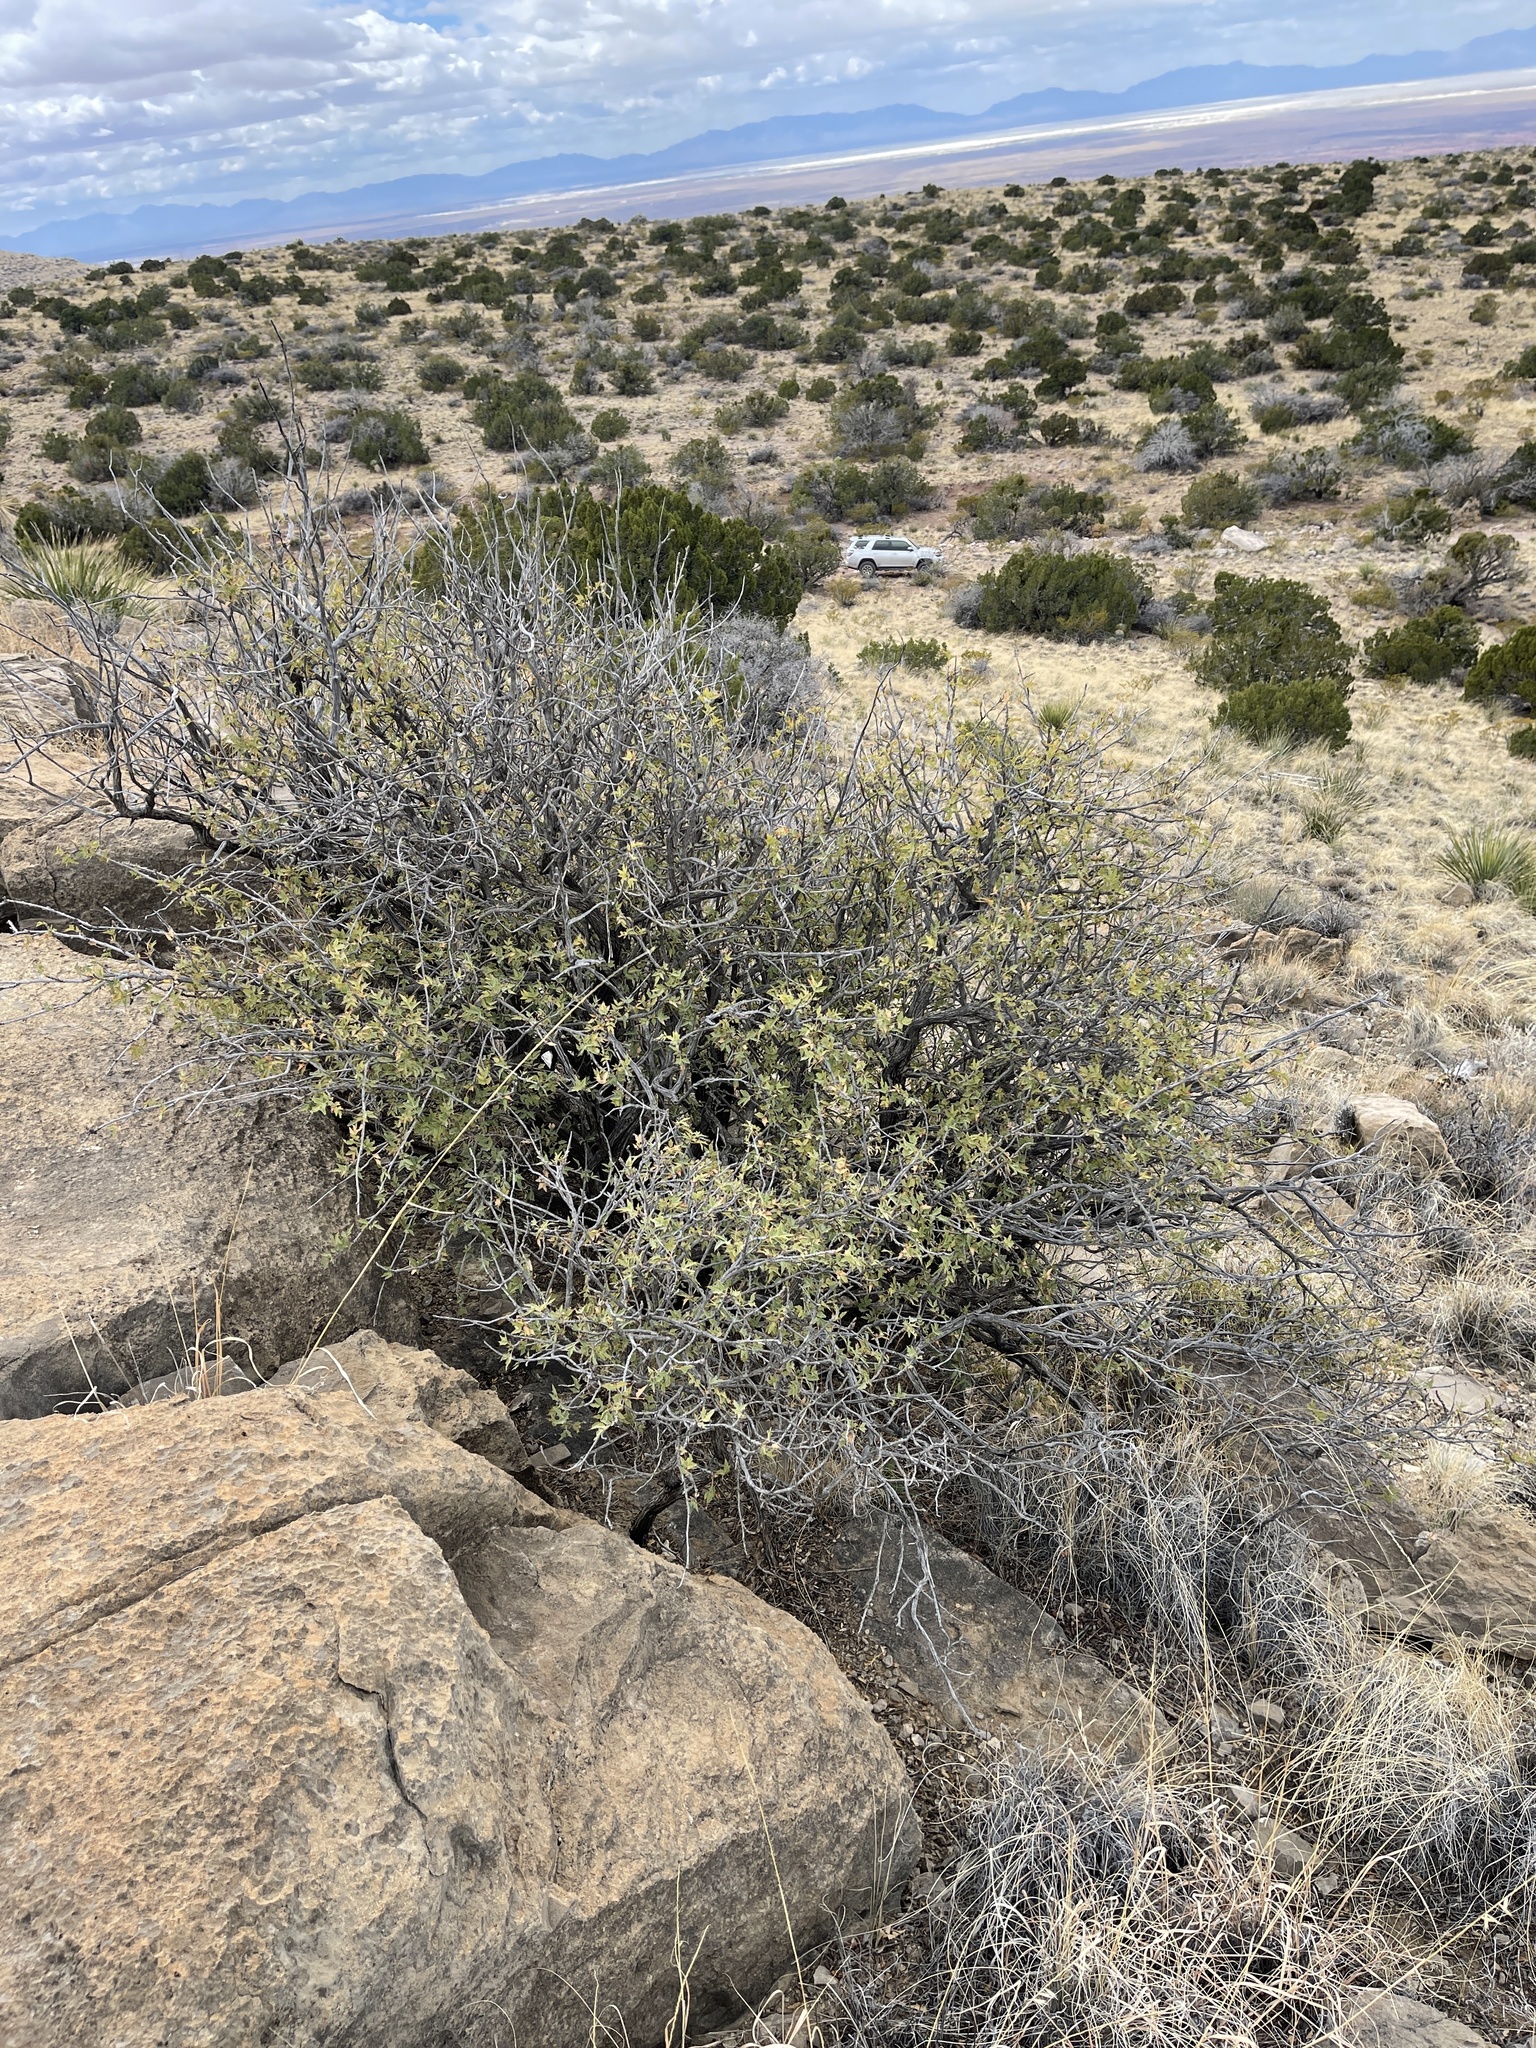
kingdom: Plantae
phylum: Tracheophyta
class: Magnoliopsida
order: Ranunculales
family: Berberidaceae
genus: Alloberberis
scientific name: Alloberberis haematocarpa
